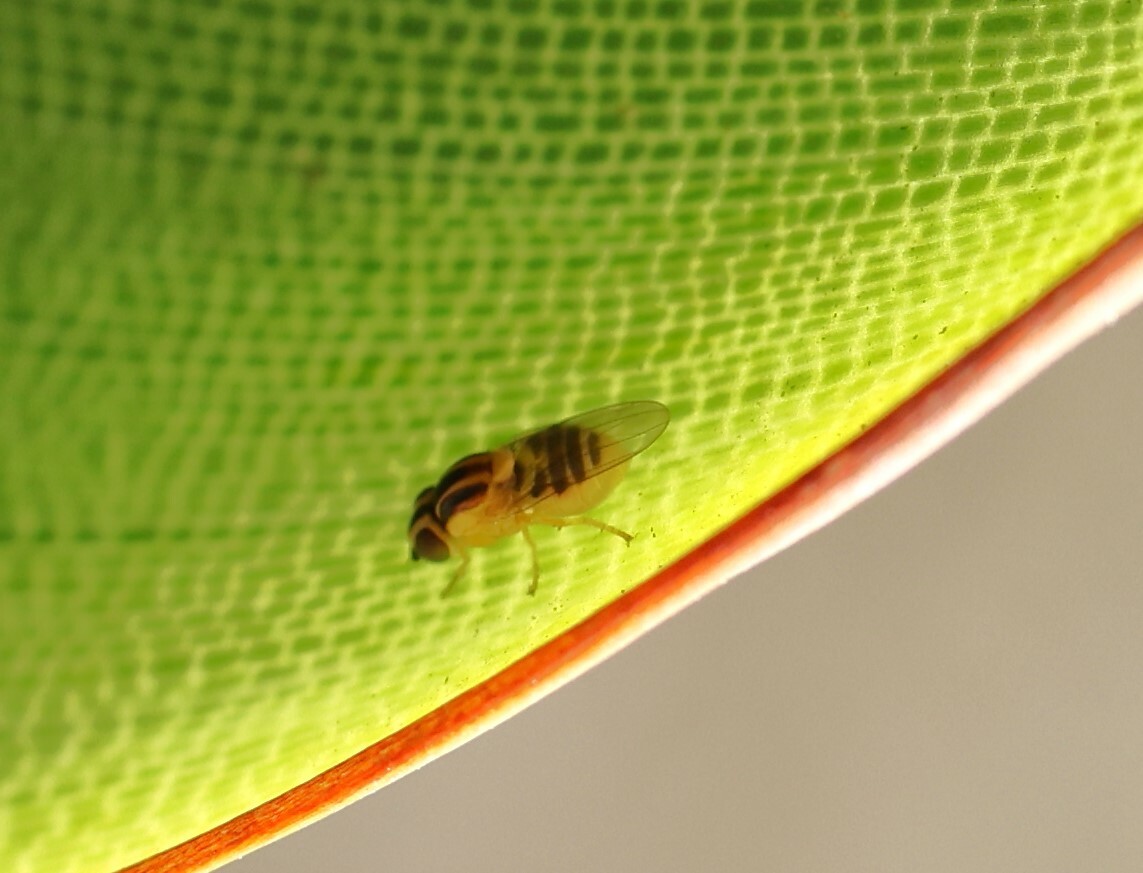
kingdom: Animalia
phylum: Arthropoda
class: Insecta
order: Diptera
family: Chloropidae
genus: Thaumatomyia
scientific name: Thaumatomyia glabra
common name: Chloropid fly
